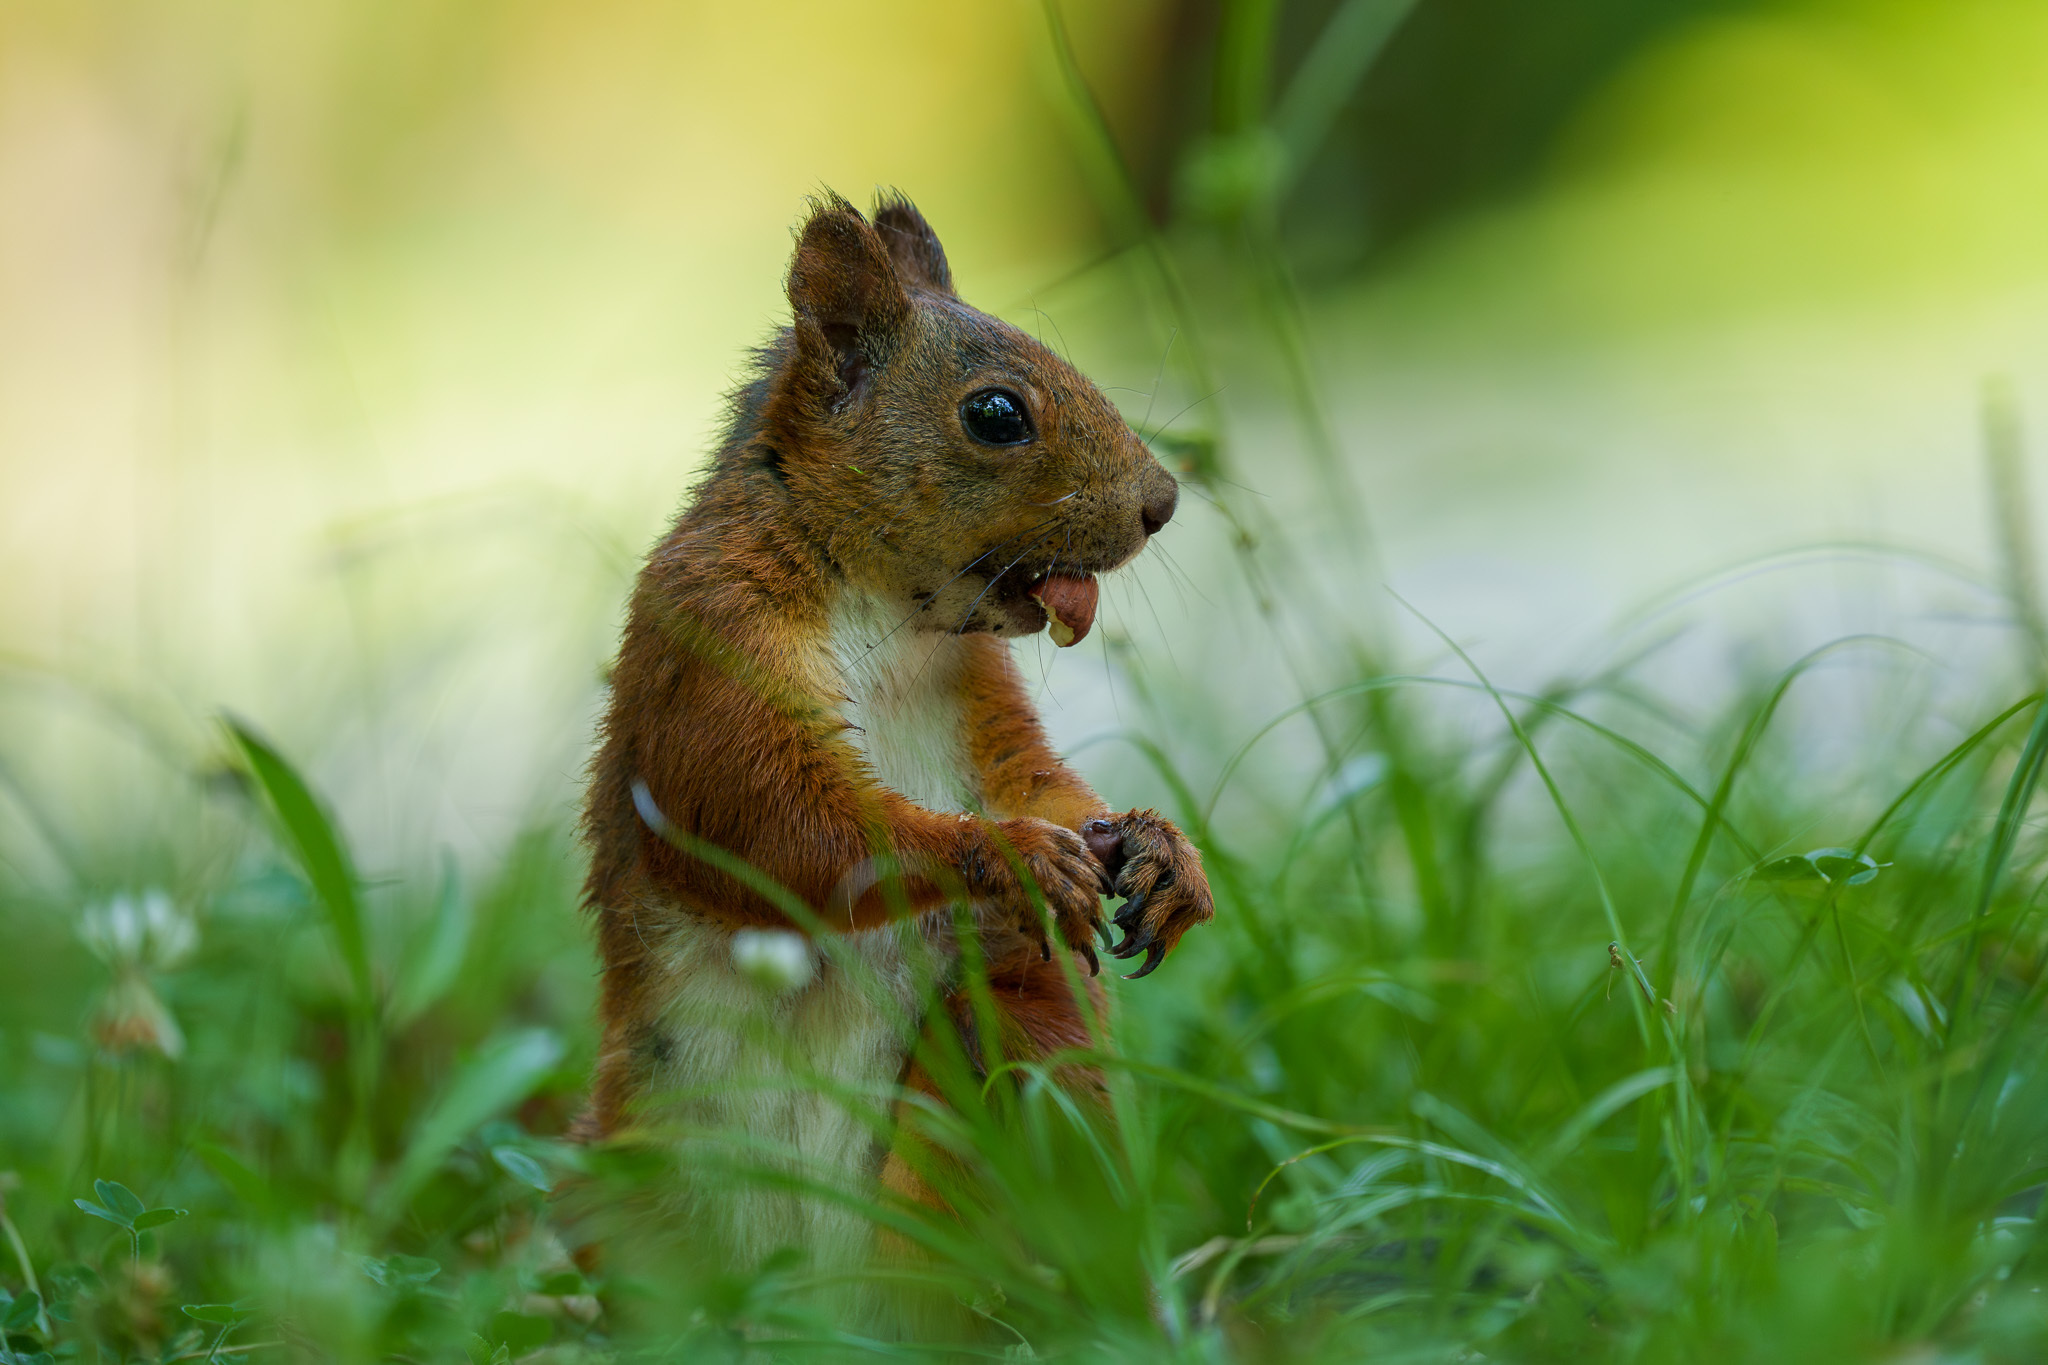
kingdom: Animalia
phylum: Chordata
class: Mammalia
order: Rodentia
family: Sciuridae
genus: Sciurus
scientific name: Sciurus vulgaris
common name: Eurasian red squirrel
